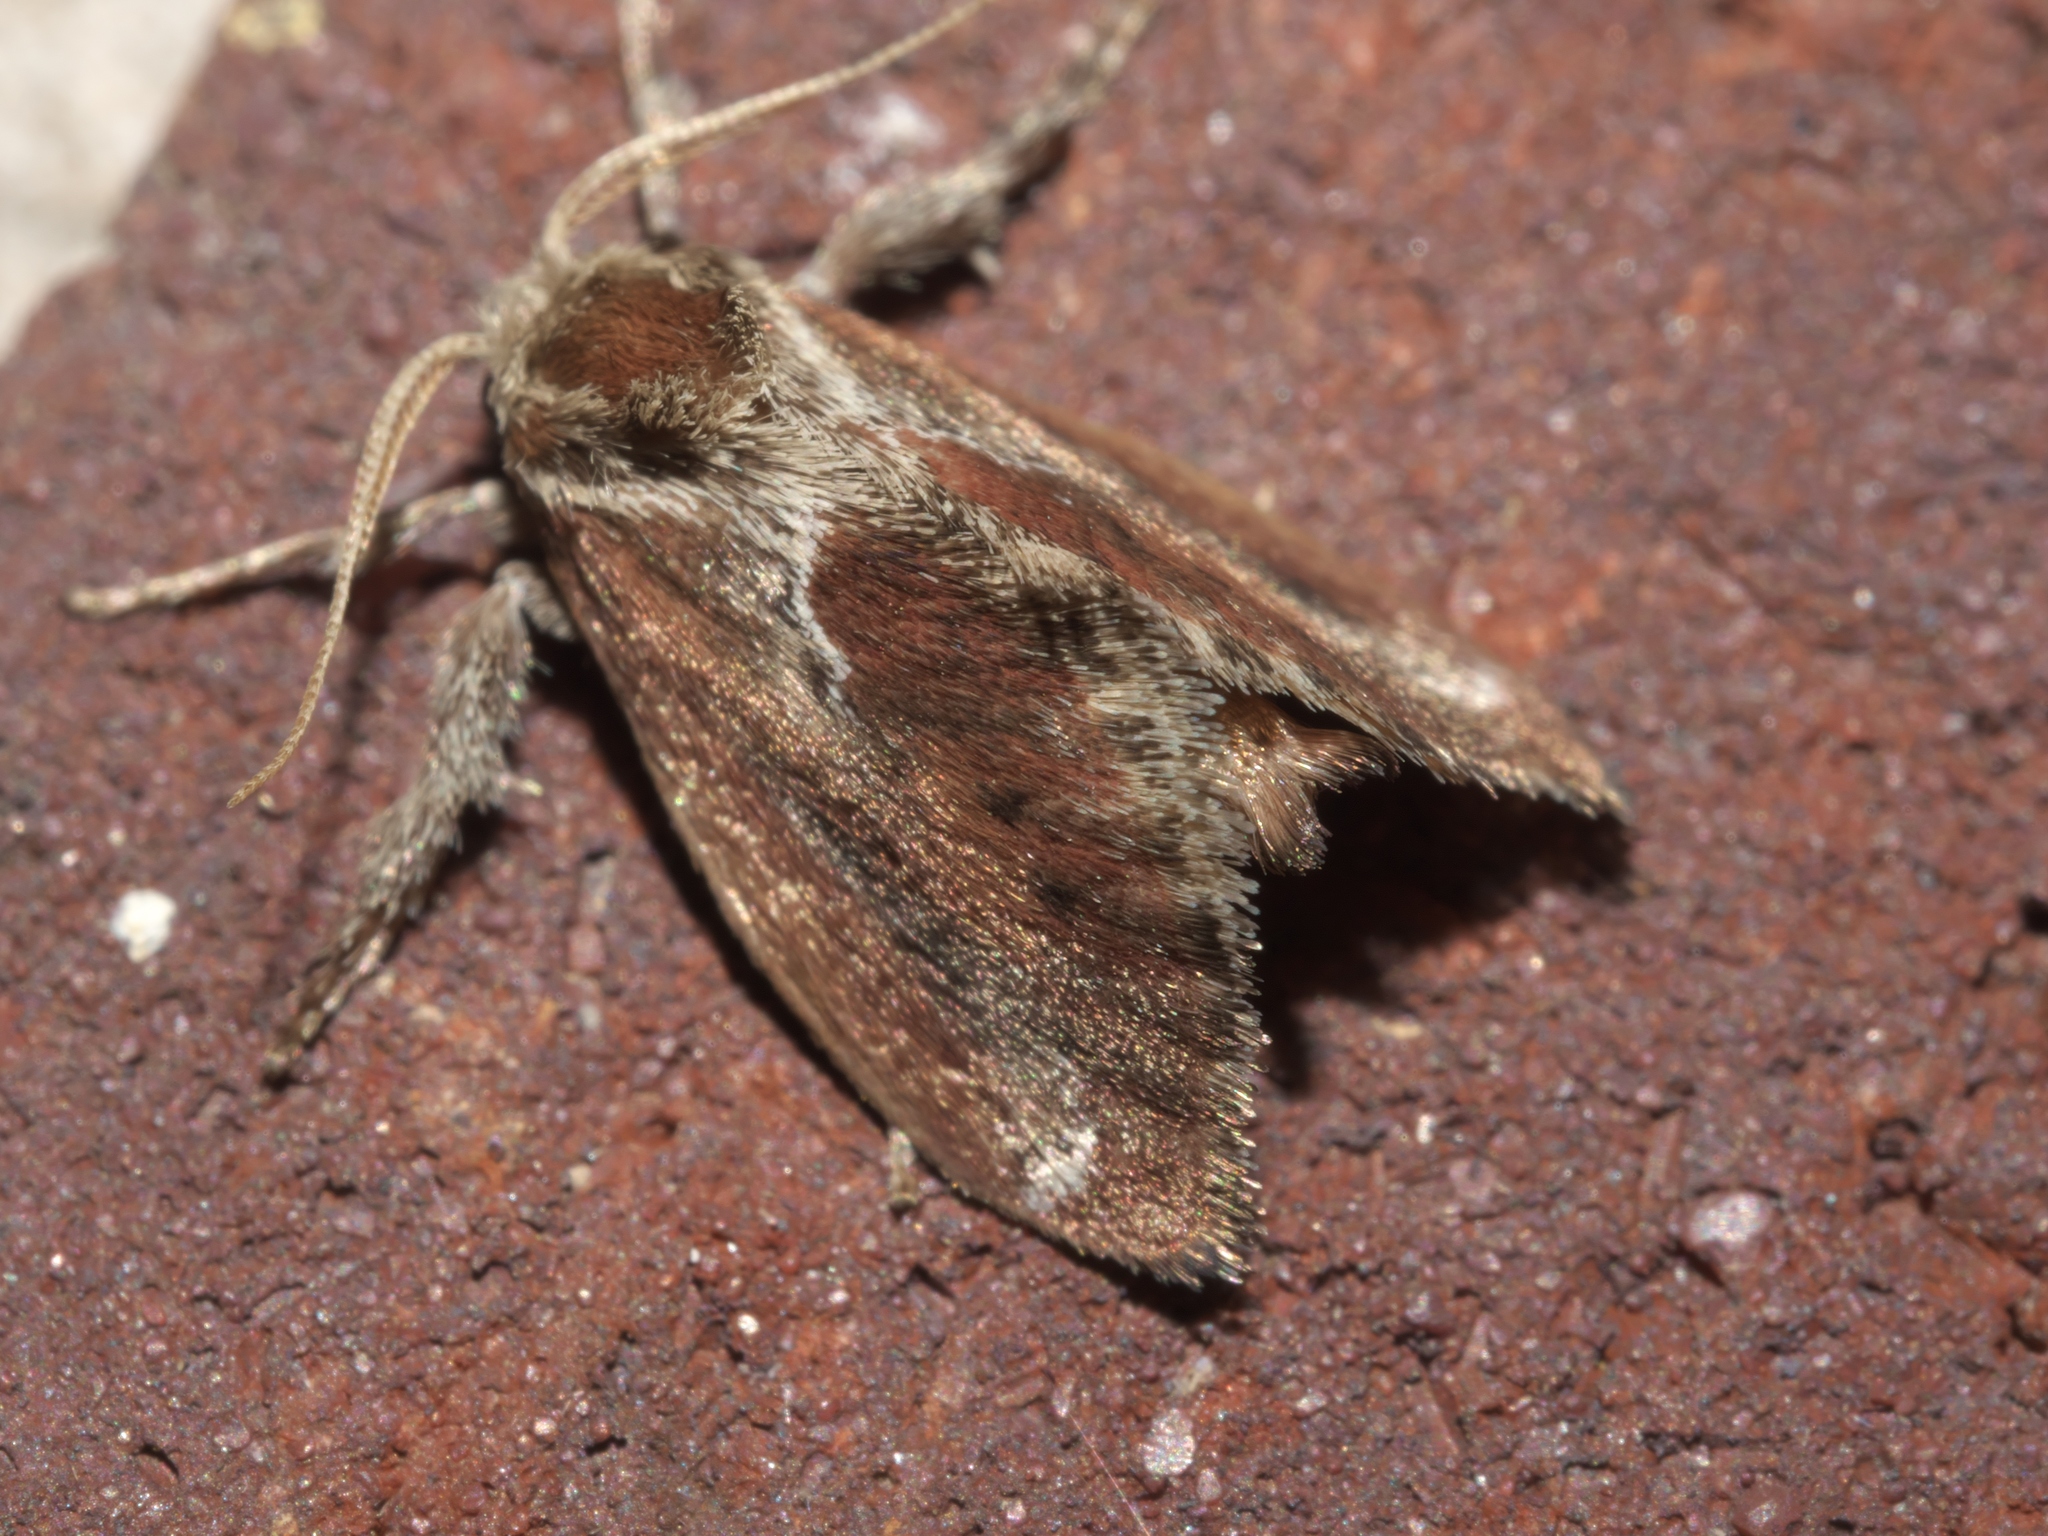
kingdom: Animalia
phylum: Arthropoda
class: Insecta
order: Lepidoptera
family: Limacodidae
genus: Adoneta
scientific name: Adoneta spinuloides
